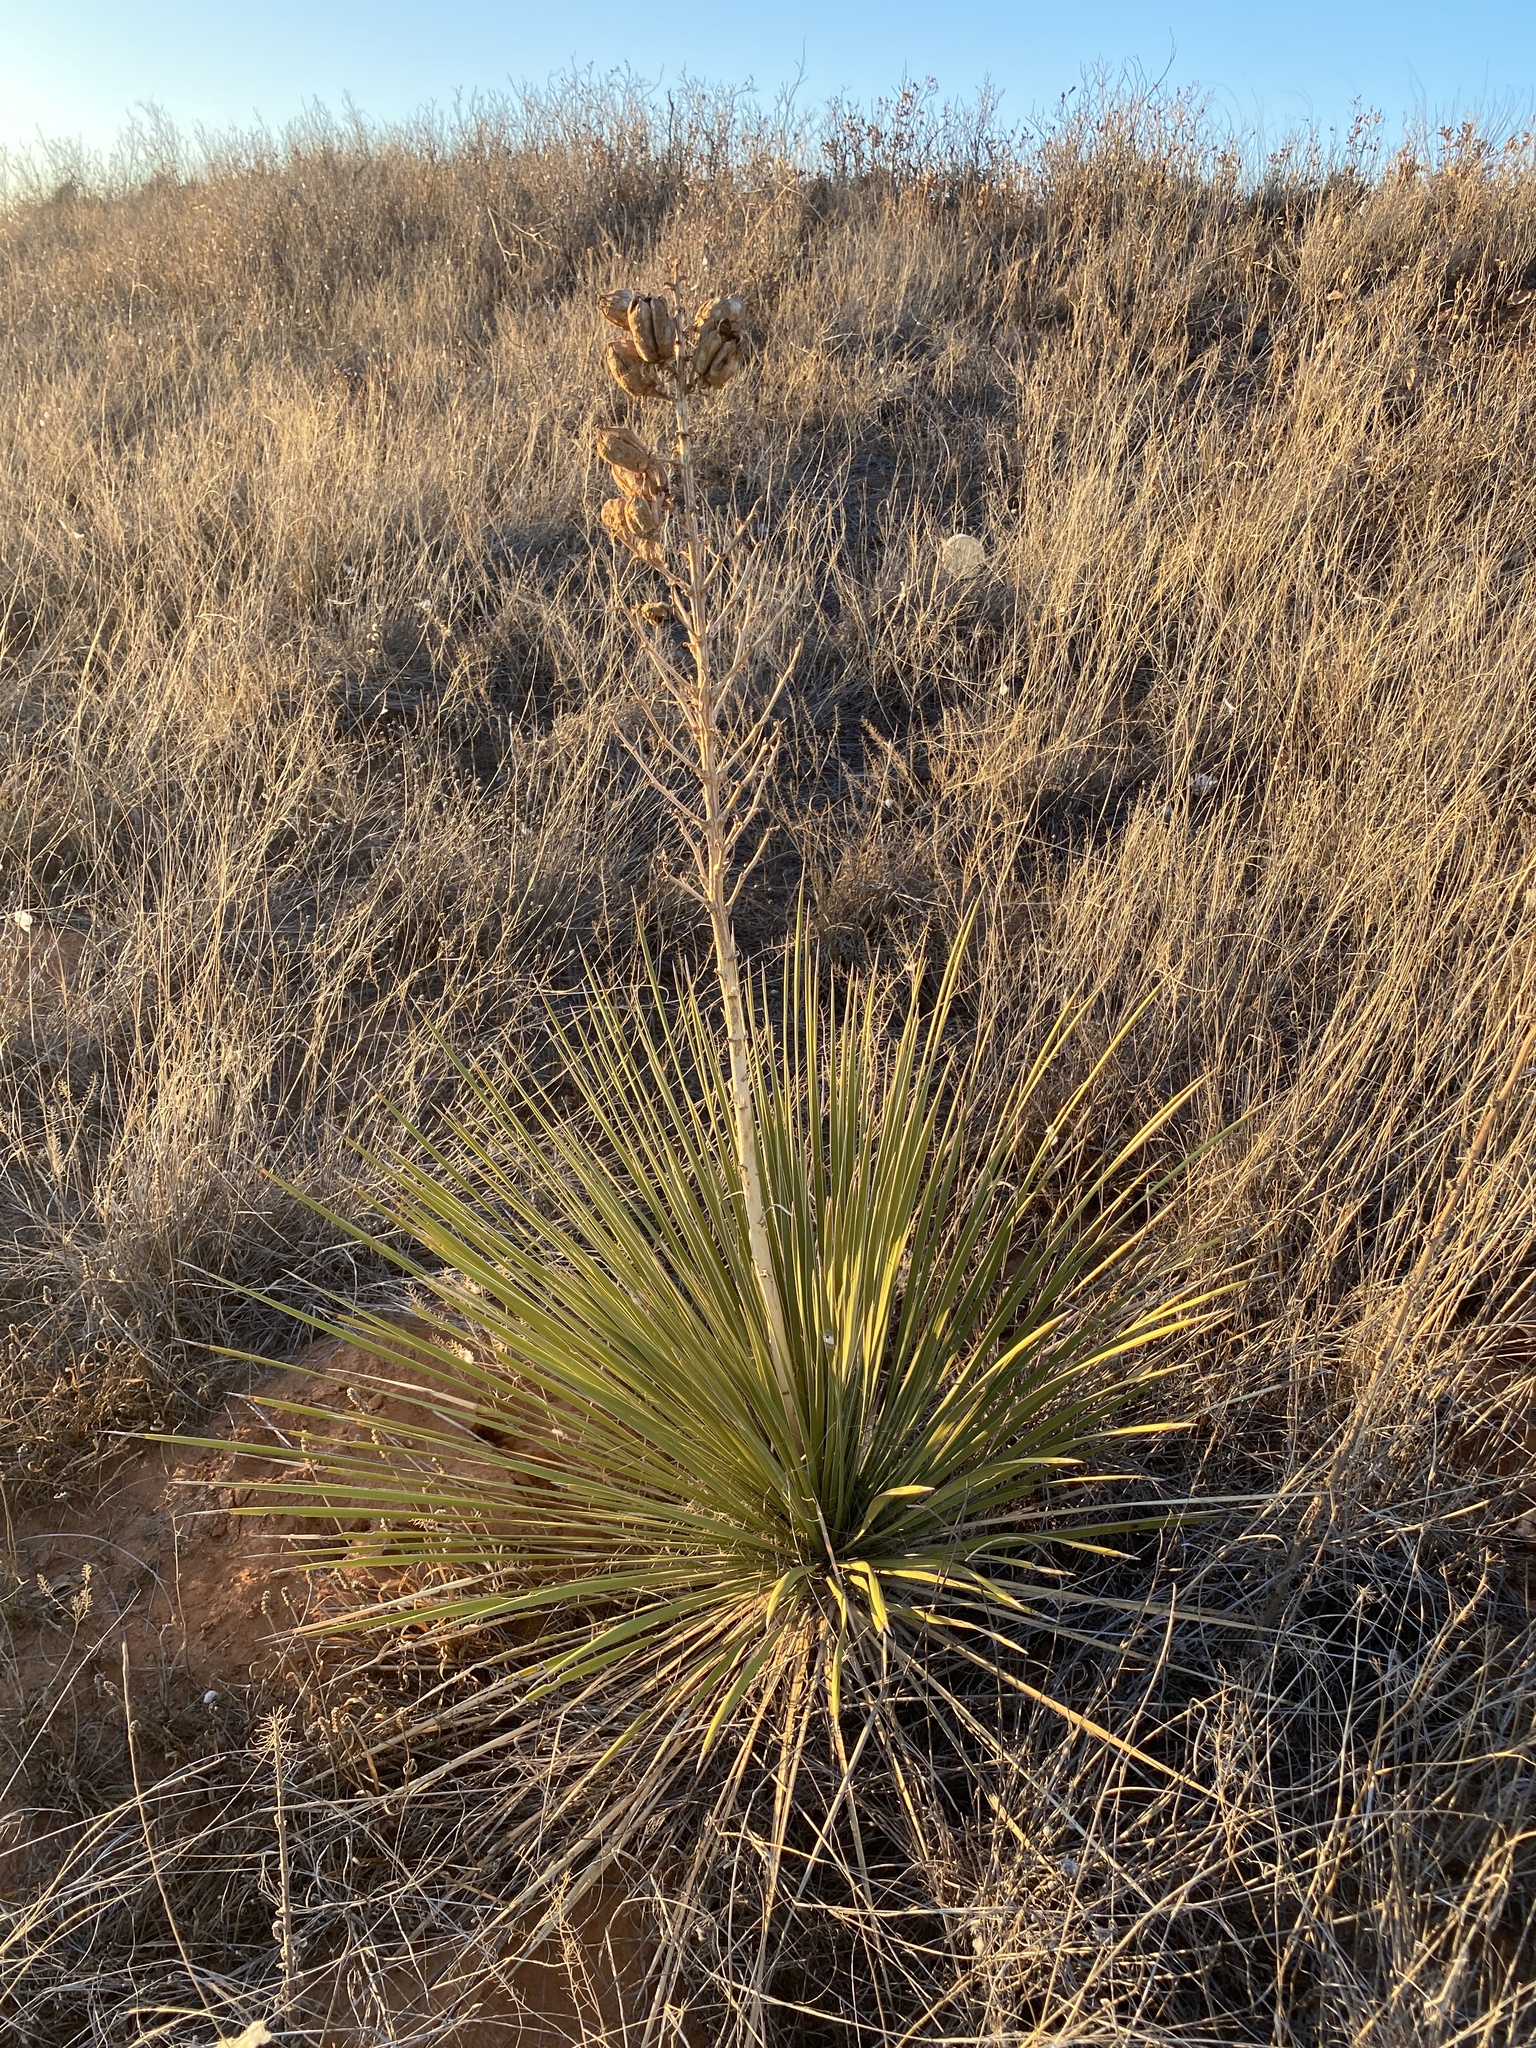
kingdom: Plantae
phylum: Tracheophyta
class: Liliopsida
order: Asparagales
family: Asparagaceae
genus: Yucca
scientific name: Yucca campestris
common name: Plains yucca
